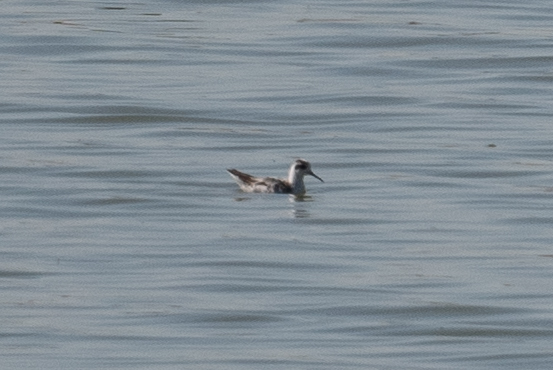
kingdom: Animalia
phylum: Chordata
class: Aves
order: Charadriiformes
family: Scolopacidae
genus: Phalaropus
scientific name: Phalaropus lobatus
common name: Red-necked phalarope
